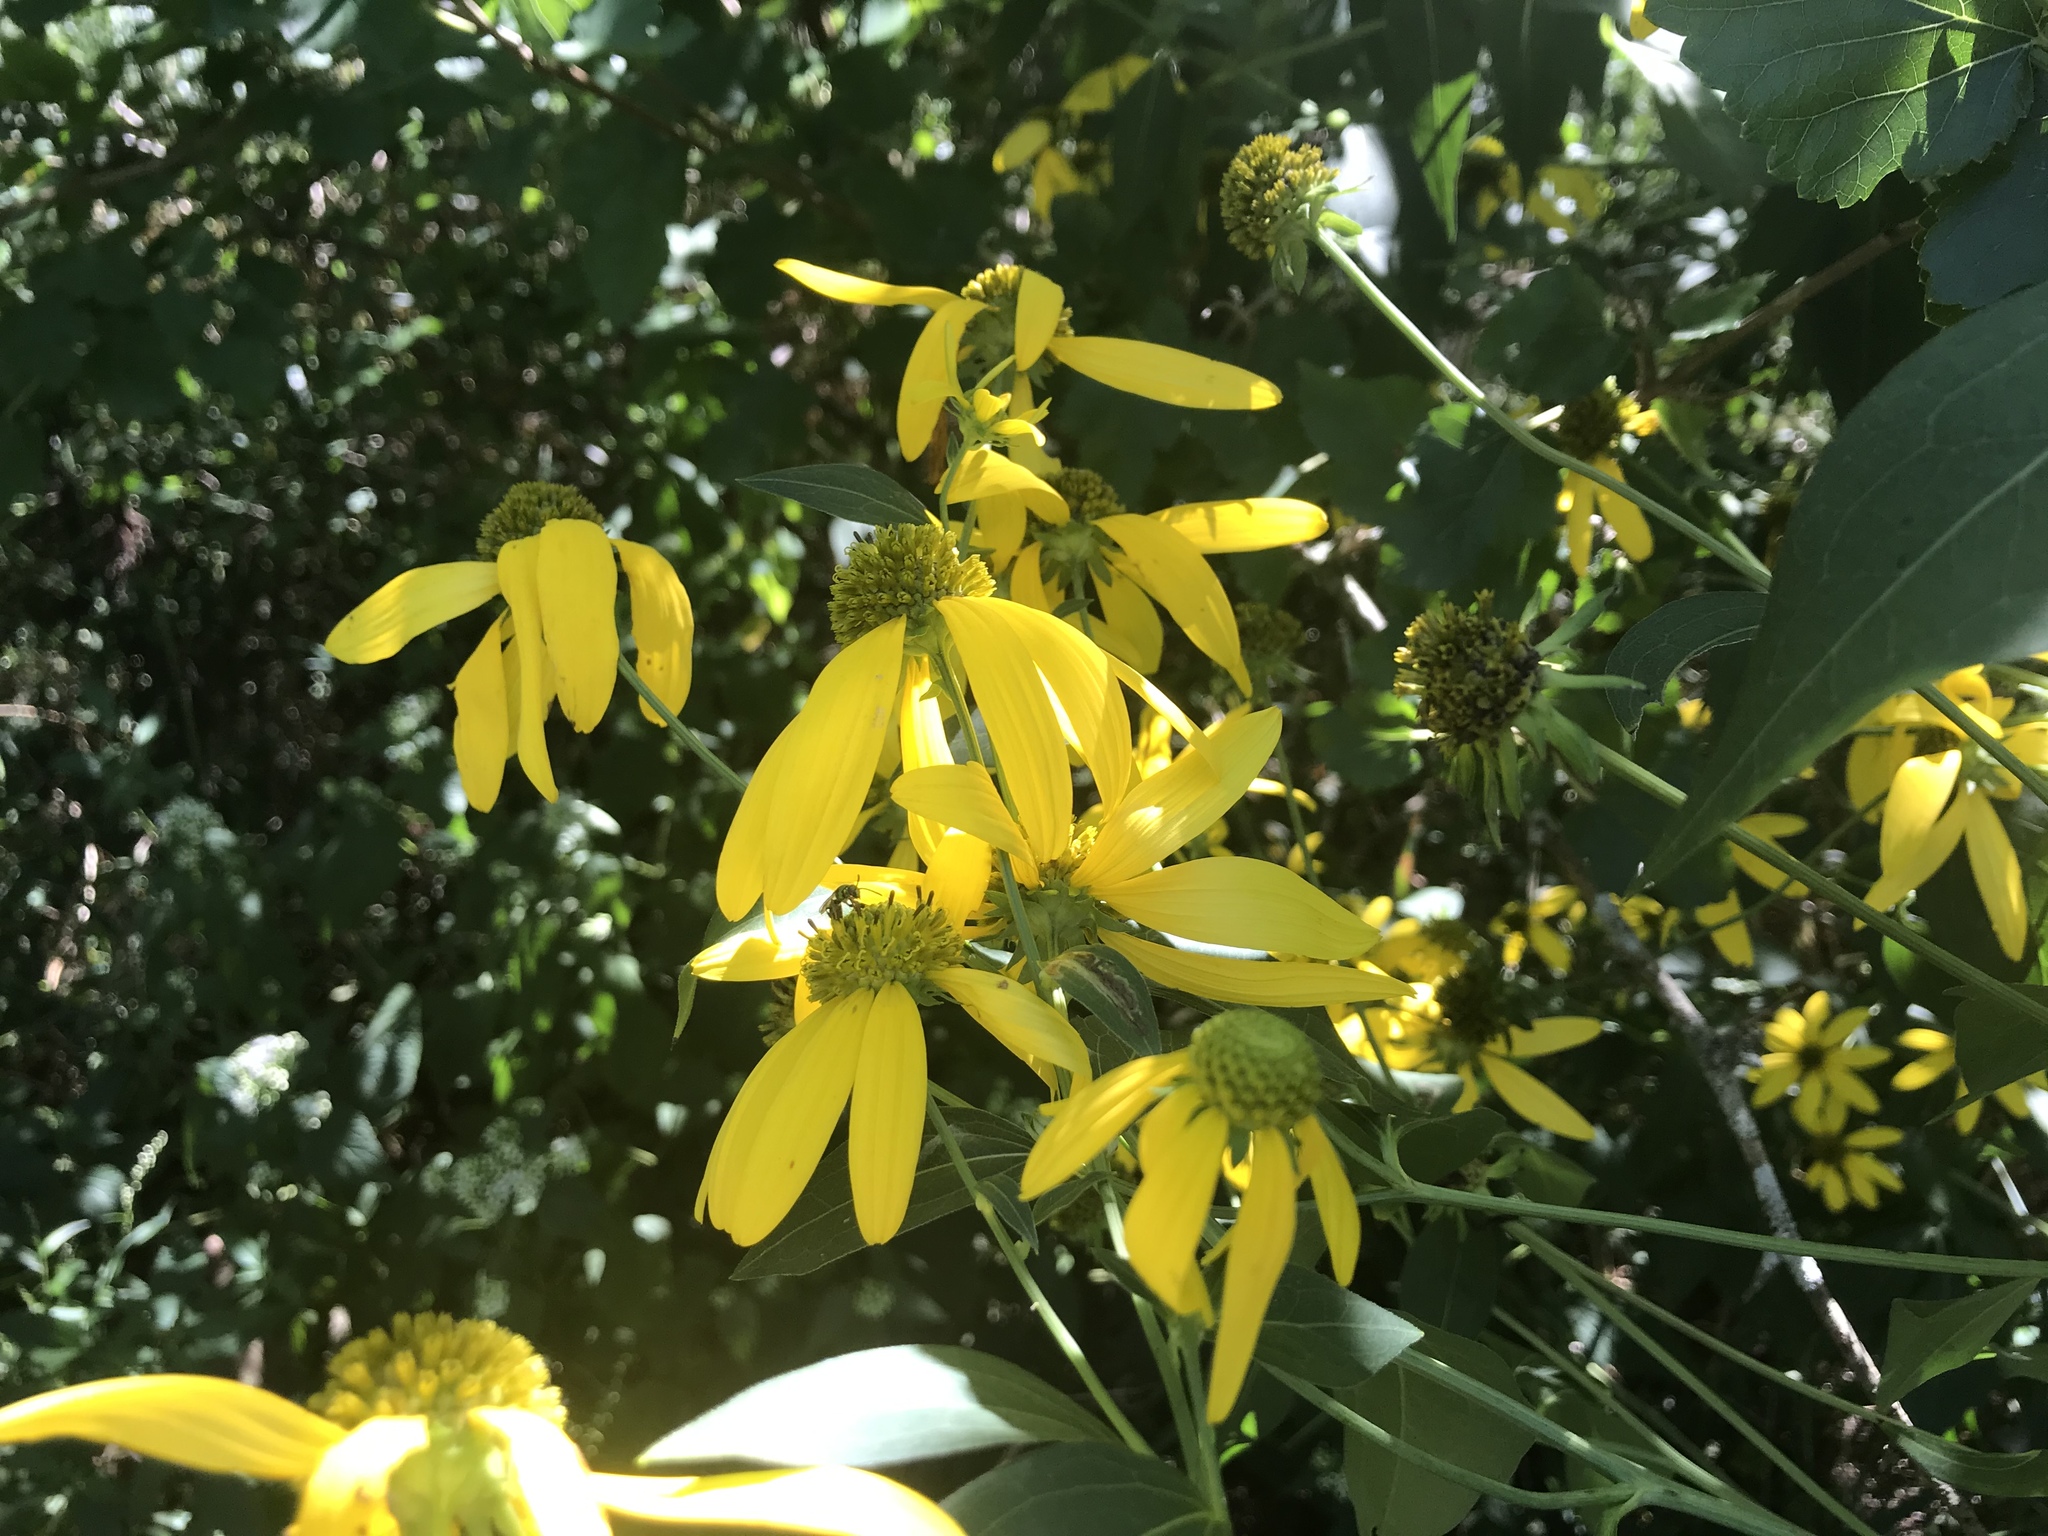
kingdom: Plantae
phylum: Tracheophyta
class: Magnoliopsida
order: Asterales
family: Asteraceae
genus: Rudbeckia
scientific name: Rudbeckia laciniata
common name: Coneflower
